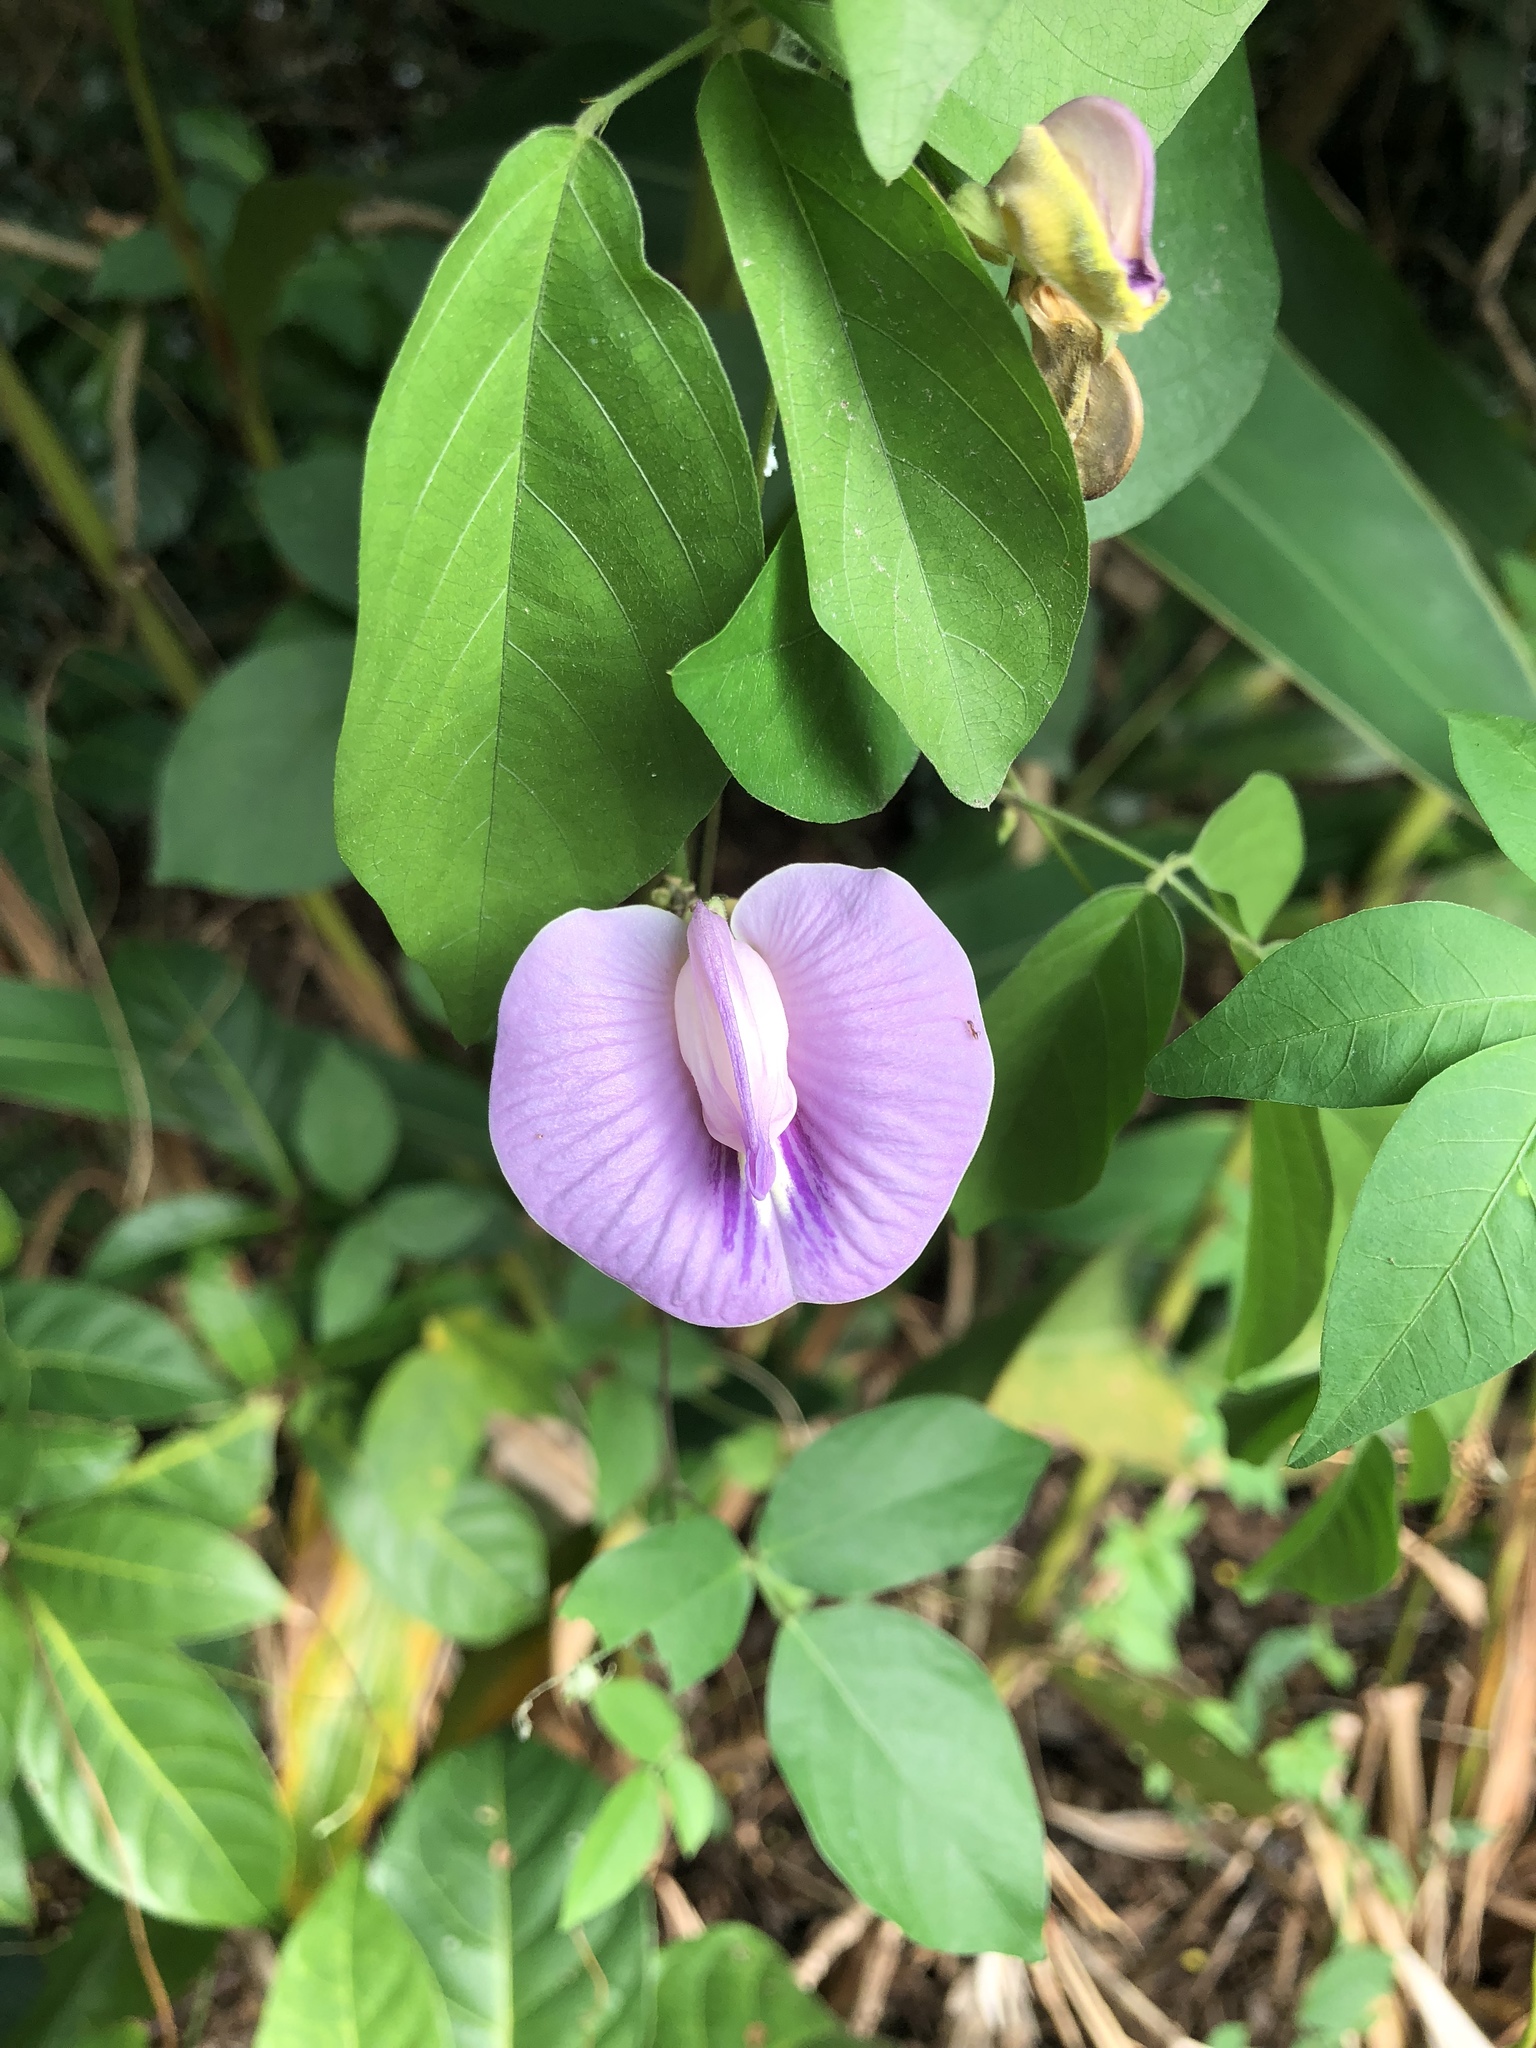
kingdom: Plantae
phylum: Tracheophyta
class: Magnoliopsida
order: Fabales
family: Fabaceae
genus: Centrosema
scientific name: Centrosema pubescens
